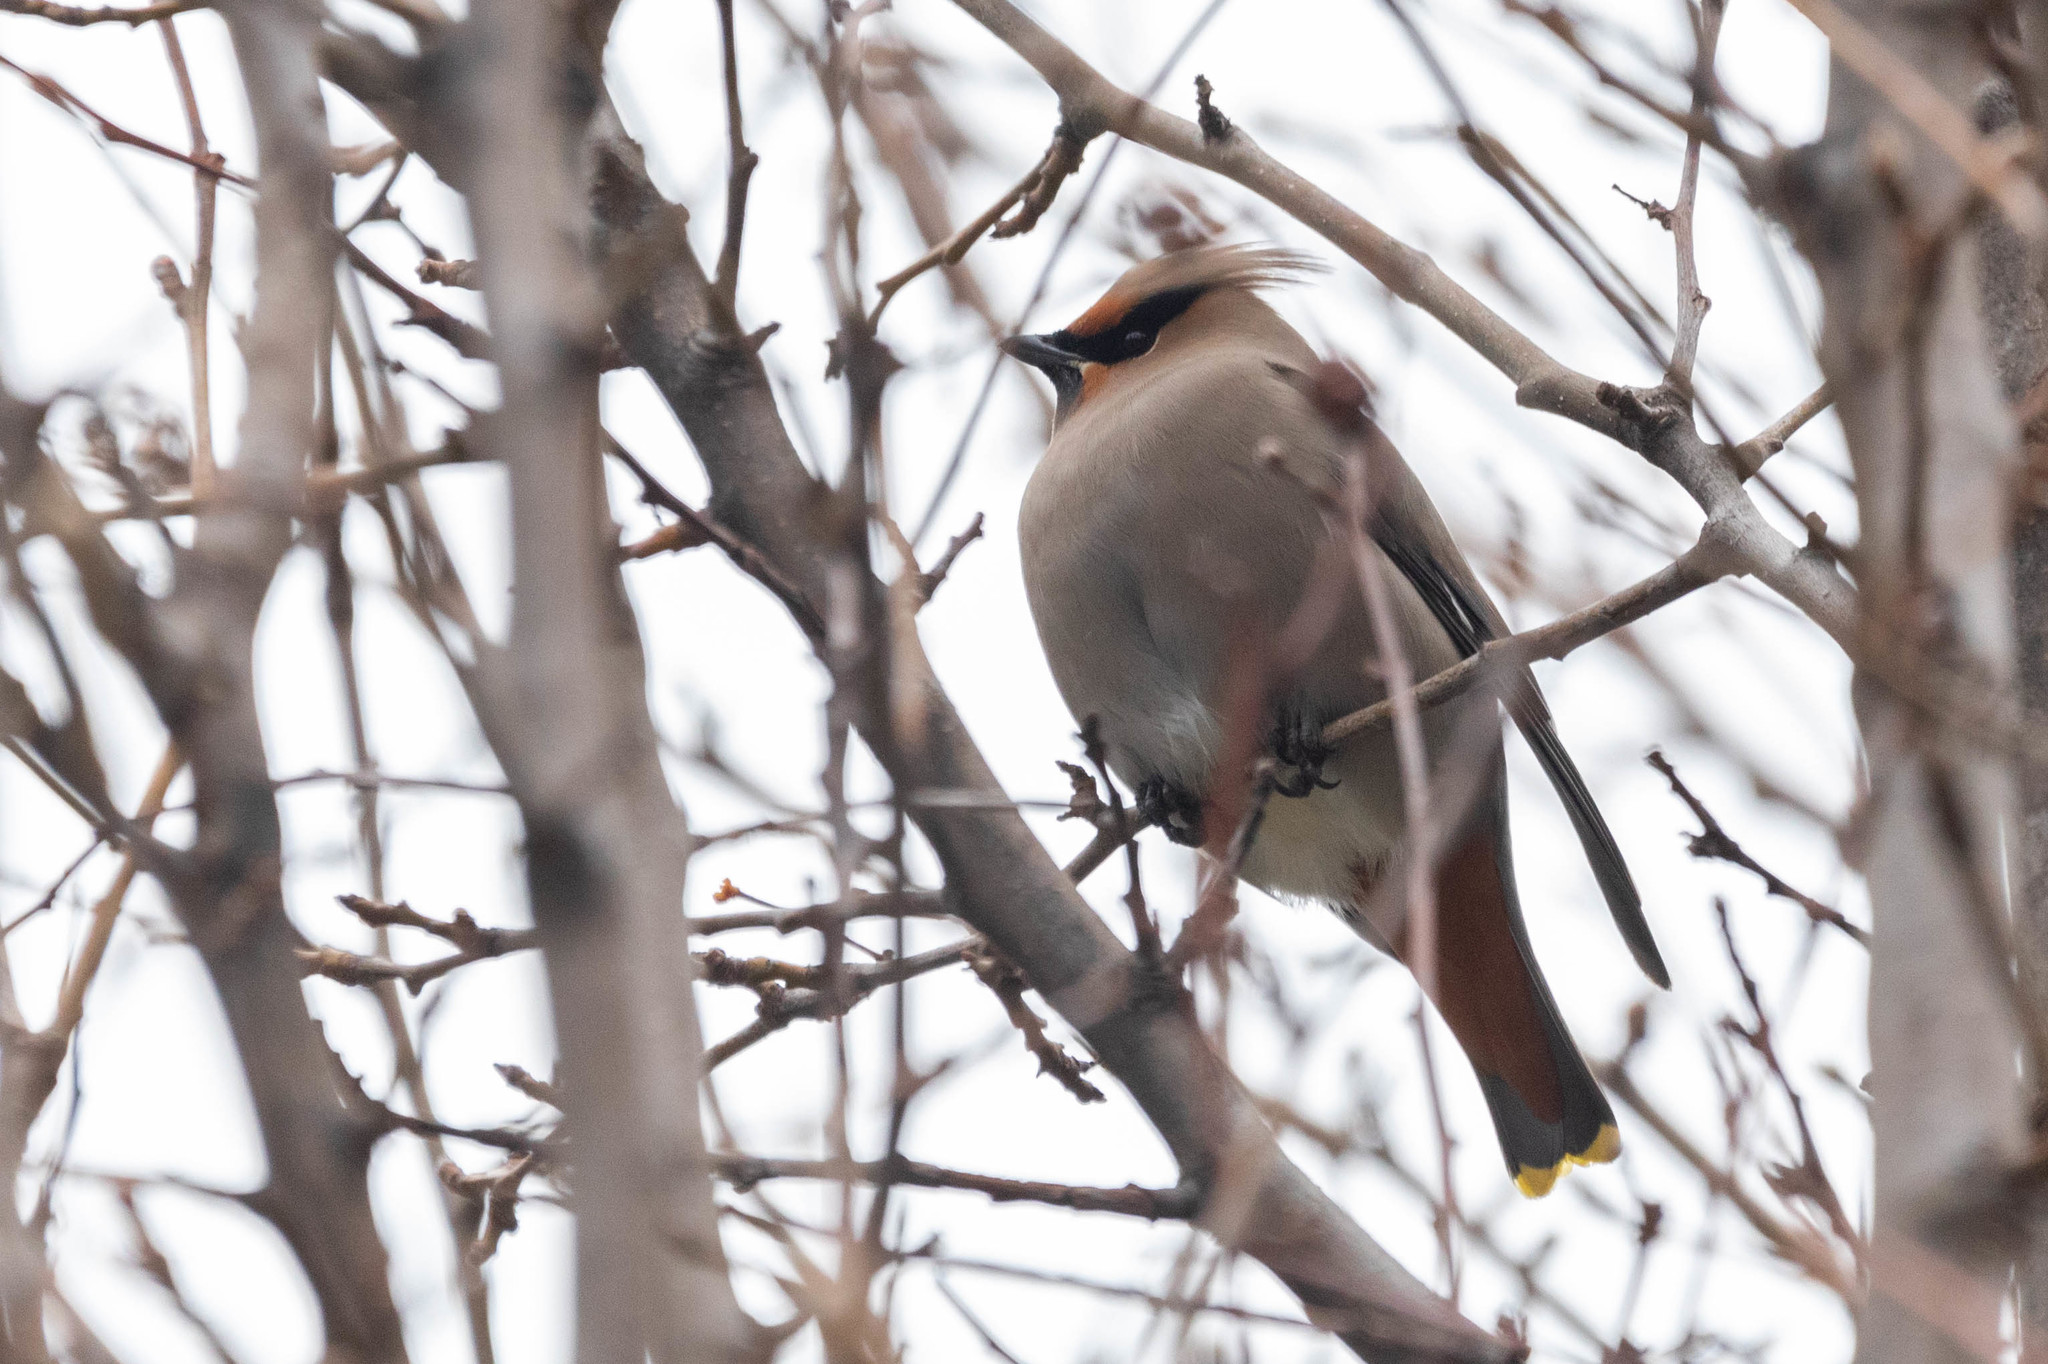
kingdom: Animalia
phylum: Chordata
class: Aves
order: Passeriformes
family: Bombycillidae
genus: Bombycilla
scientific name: Bombycilla garrulus
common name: Bohemian waxwing
